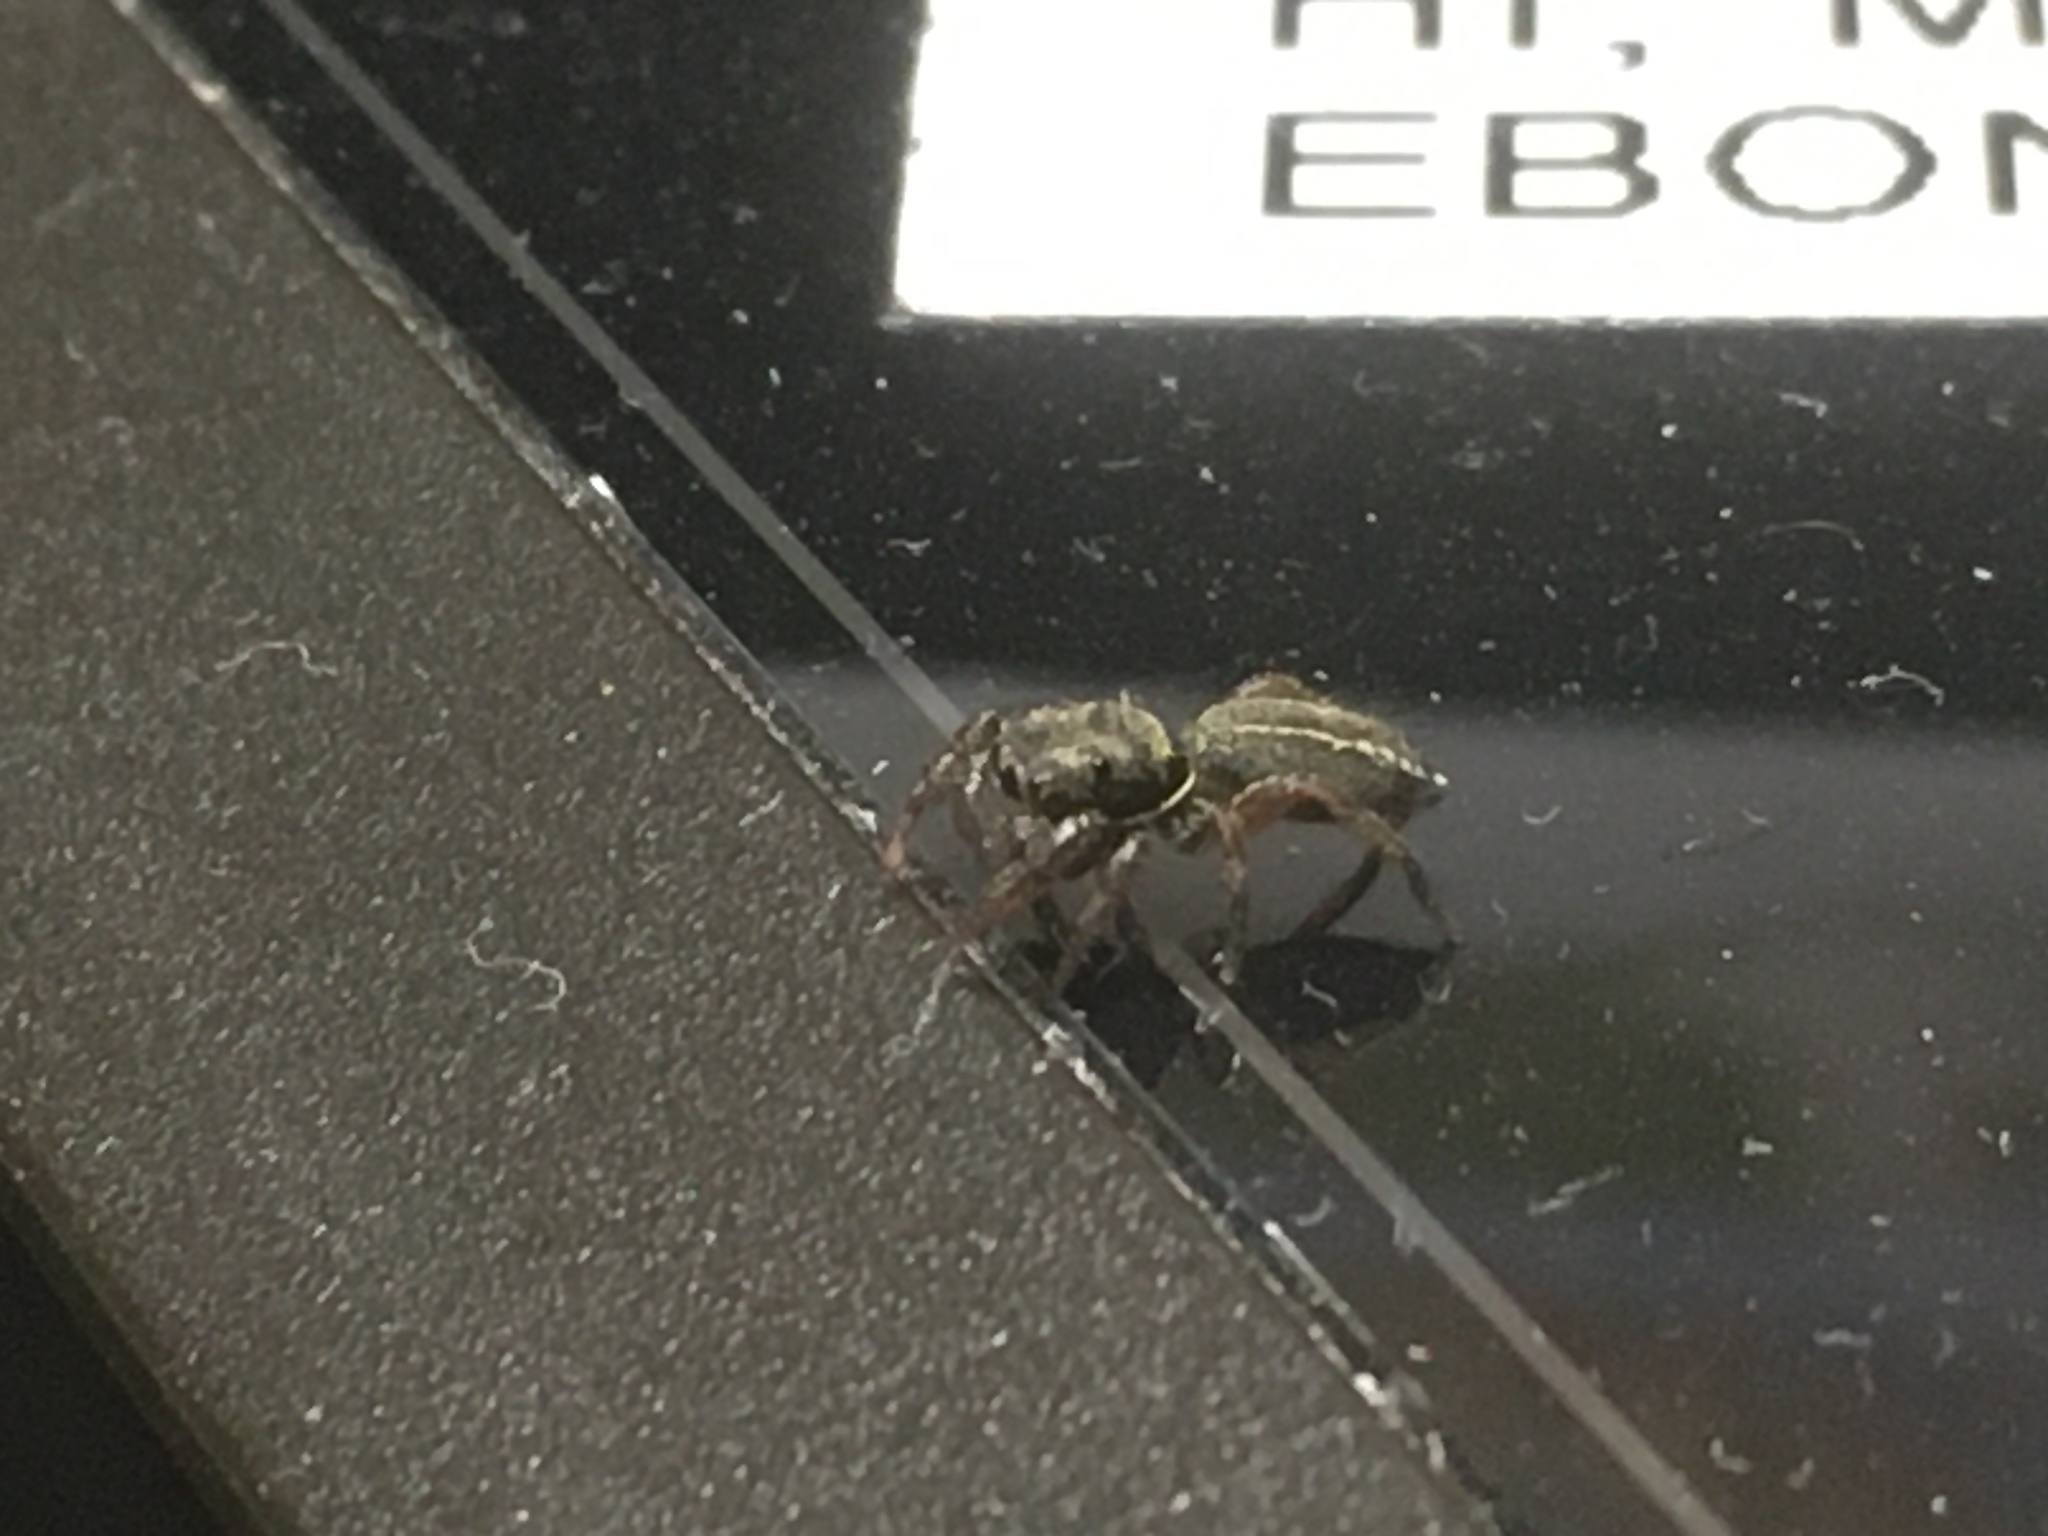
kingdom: Animalia
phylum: Arthropoda
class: Arachnida
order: Araneae
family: Salticidae
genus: Metacyrba
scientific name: Metacyrba taeniola
